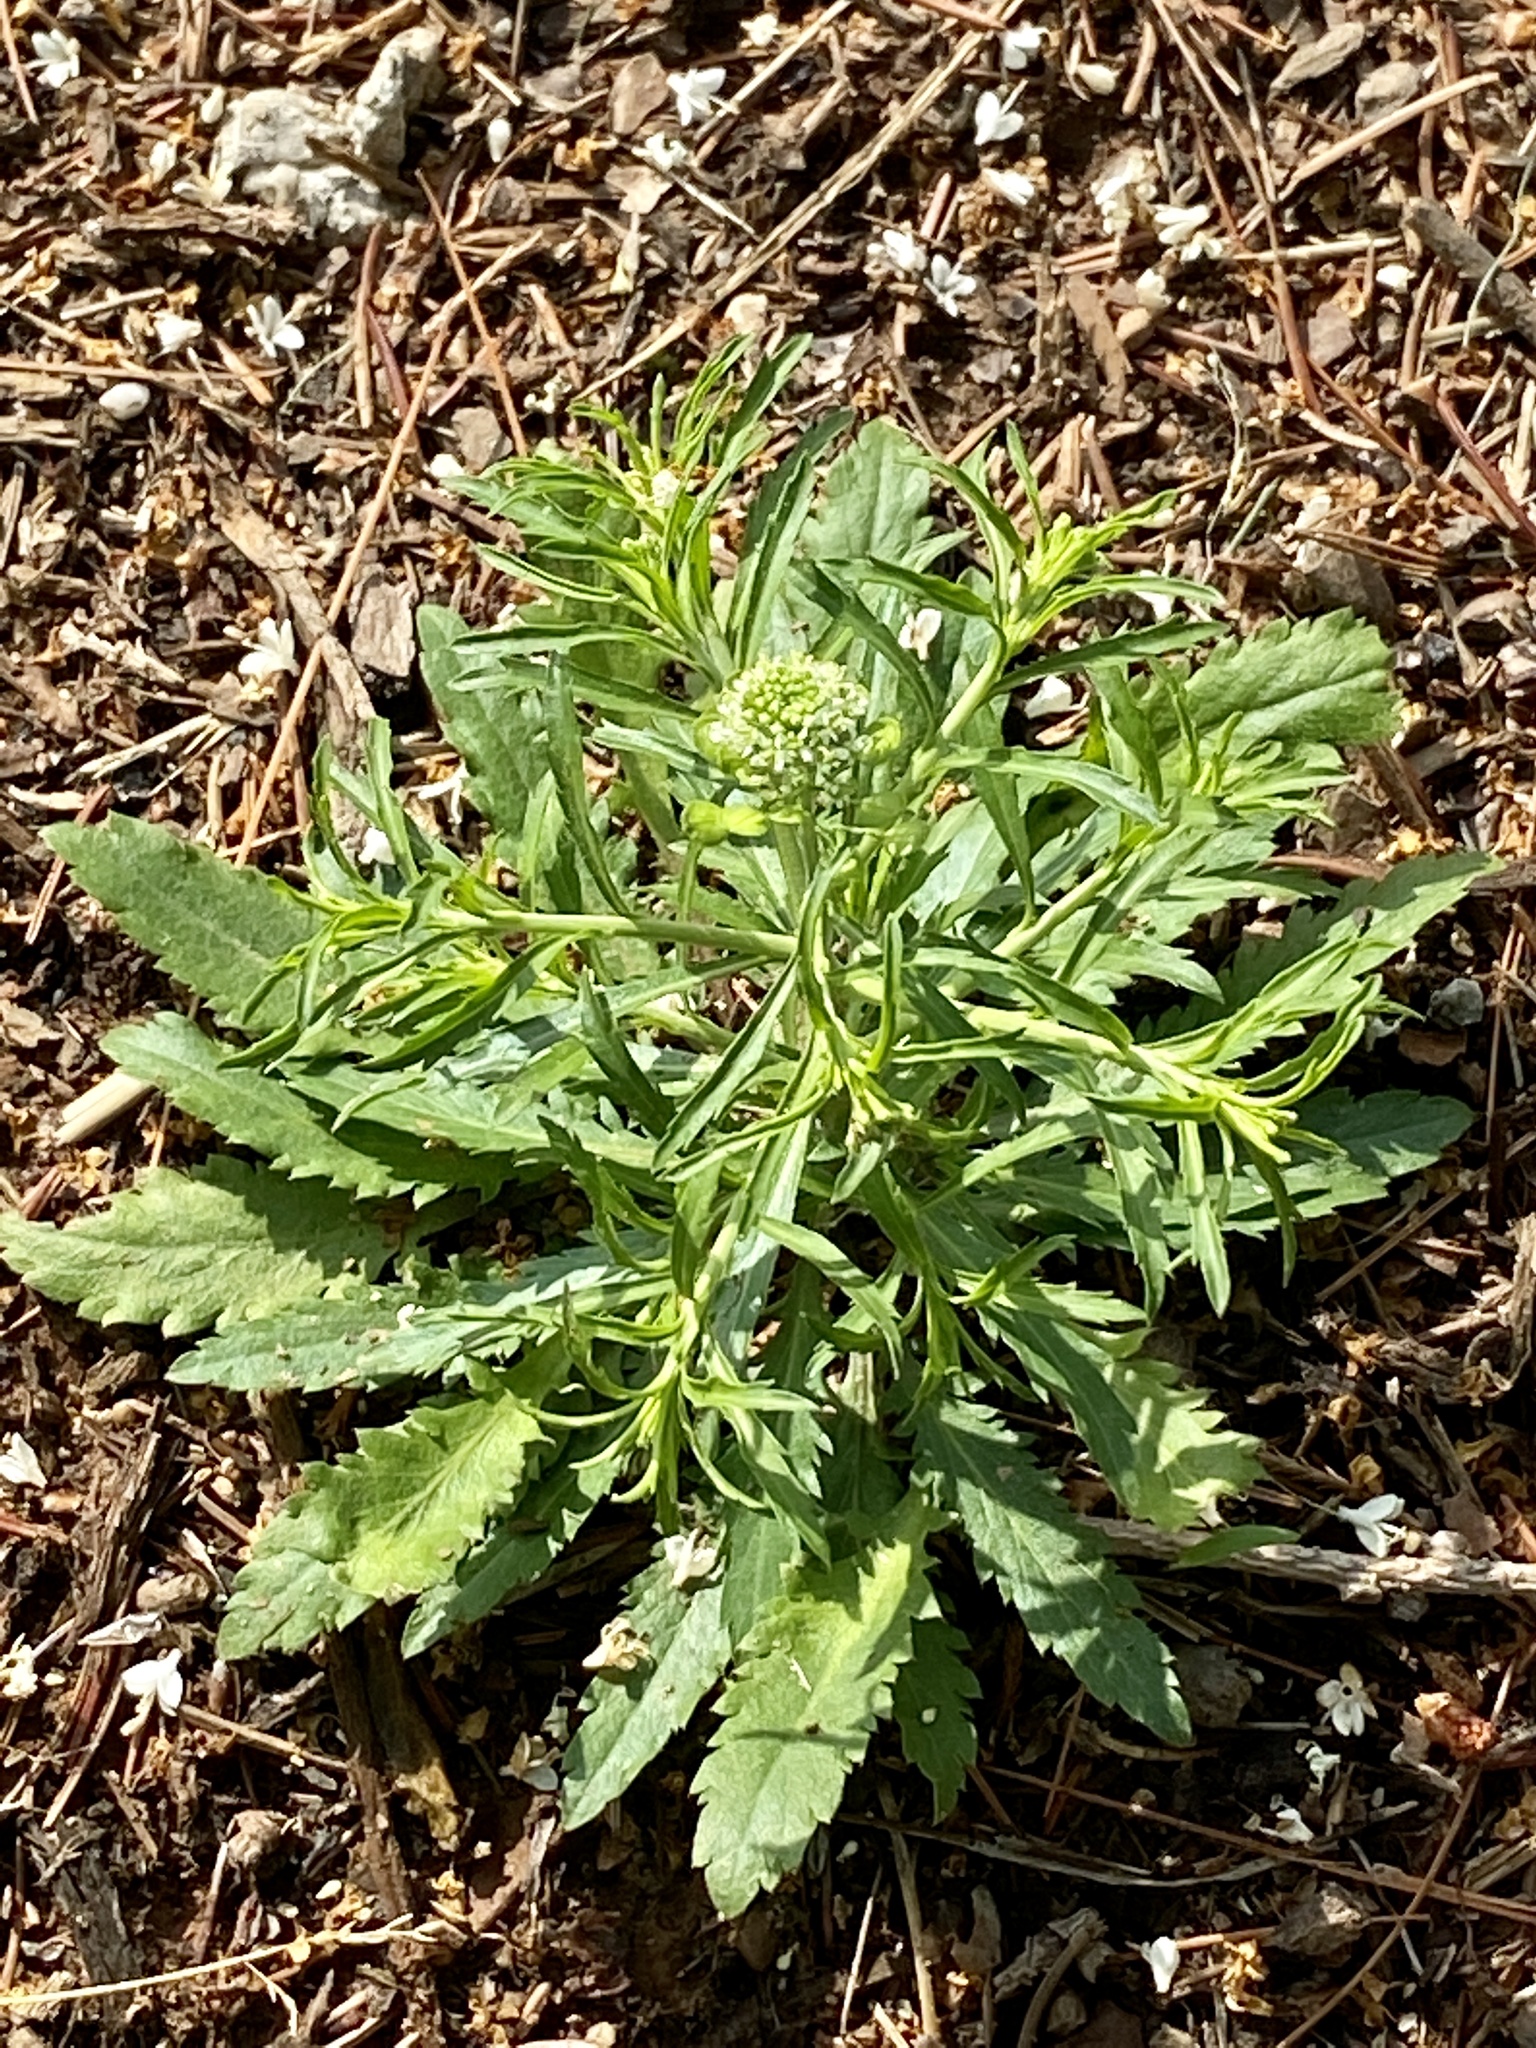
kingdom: Plantae
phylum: Tracheophyta
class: Magnoliopsida
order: Brassicales
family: Brassicaceae
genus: Lepidium
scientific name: Lepidium virginicum
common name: Least pepperwort
